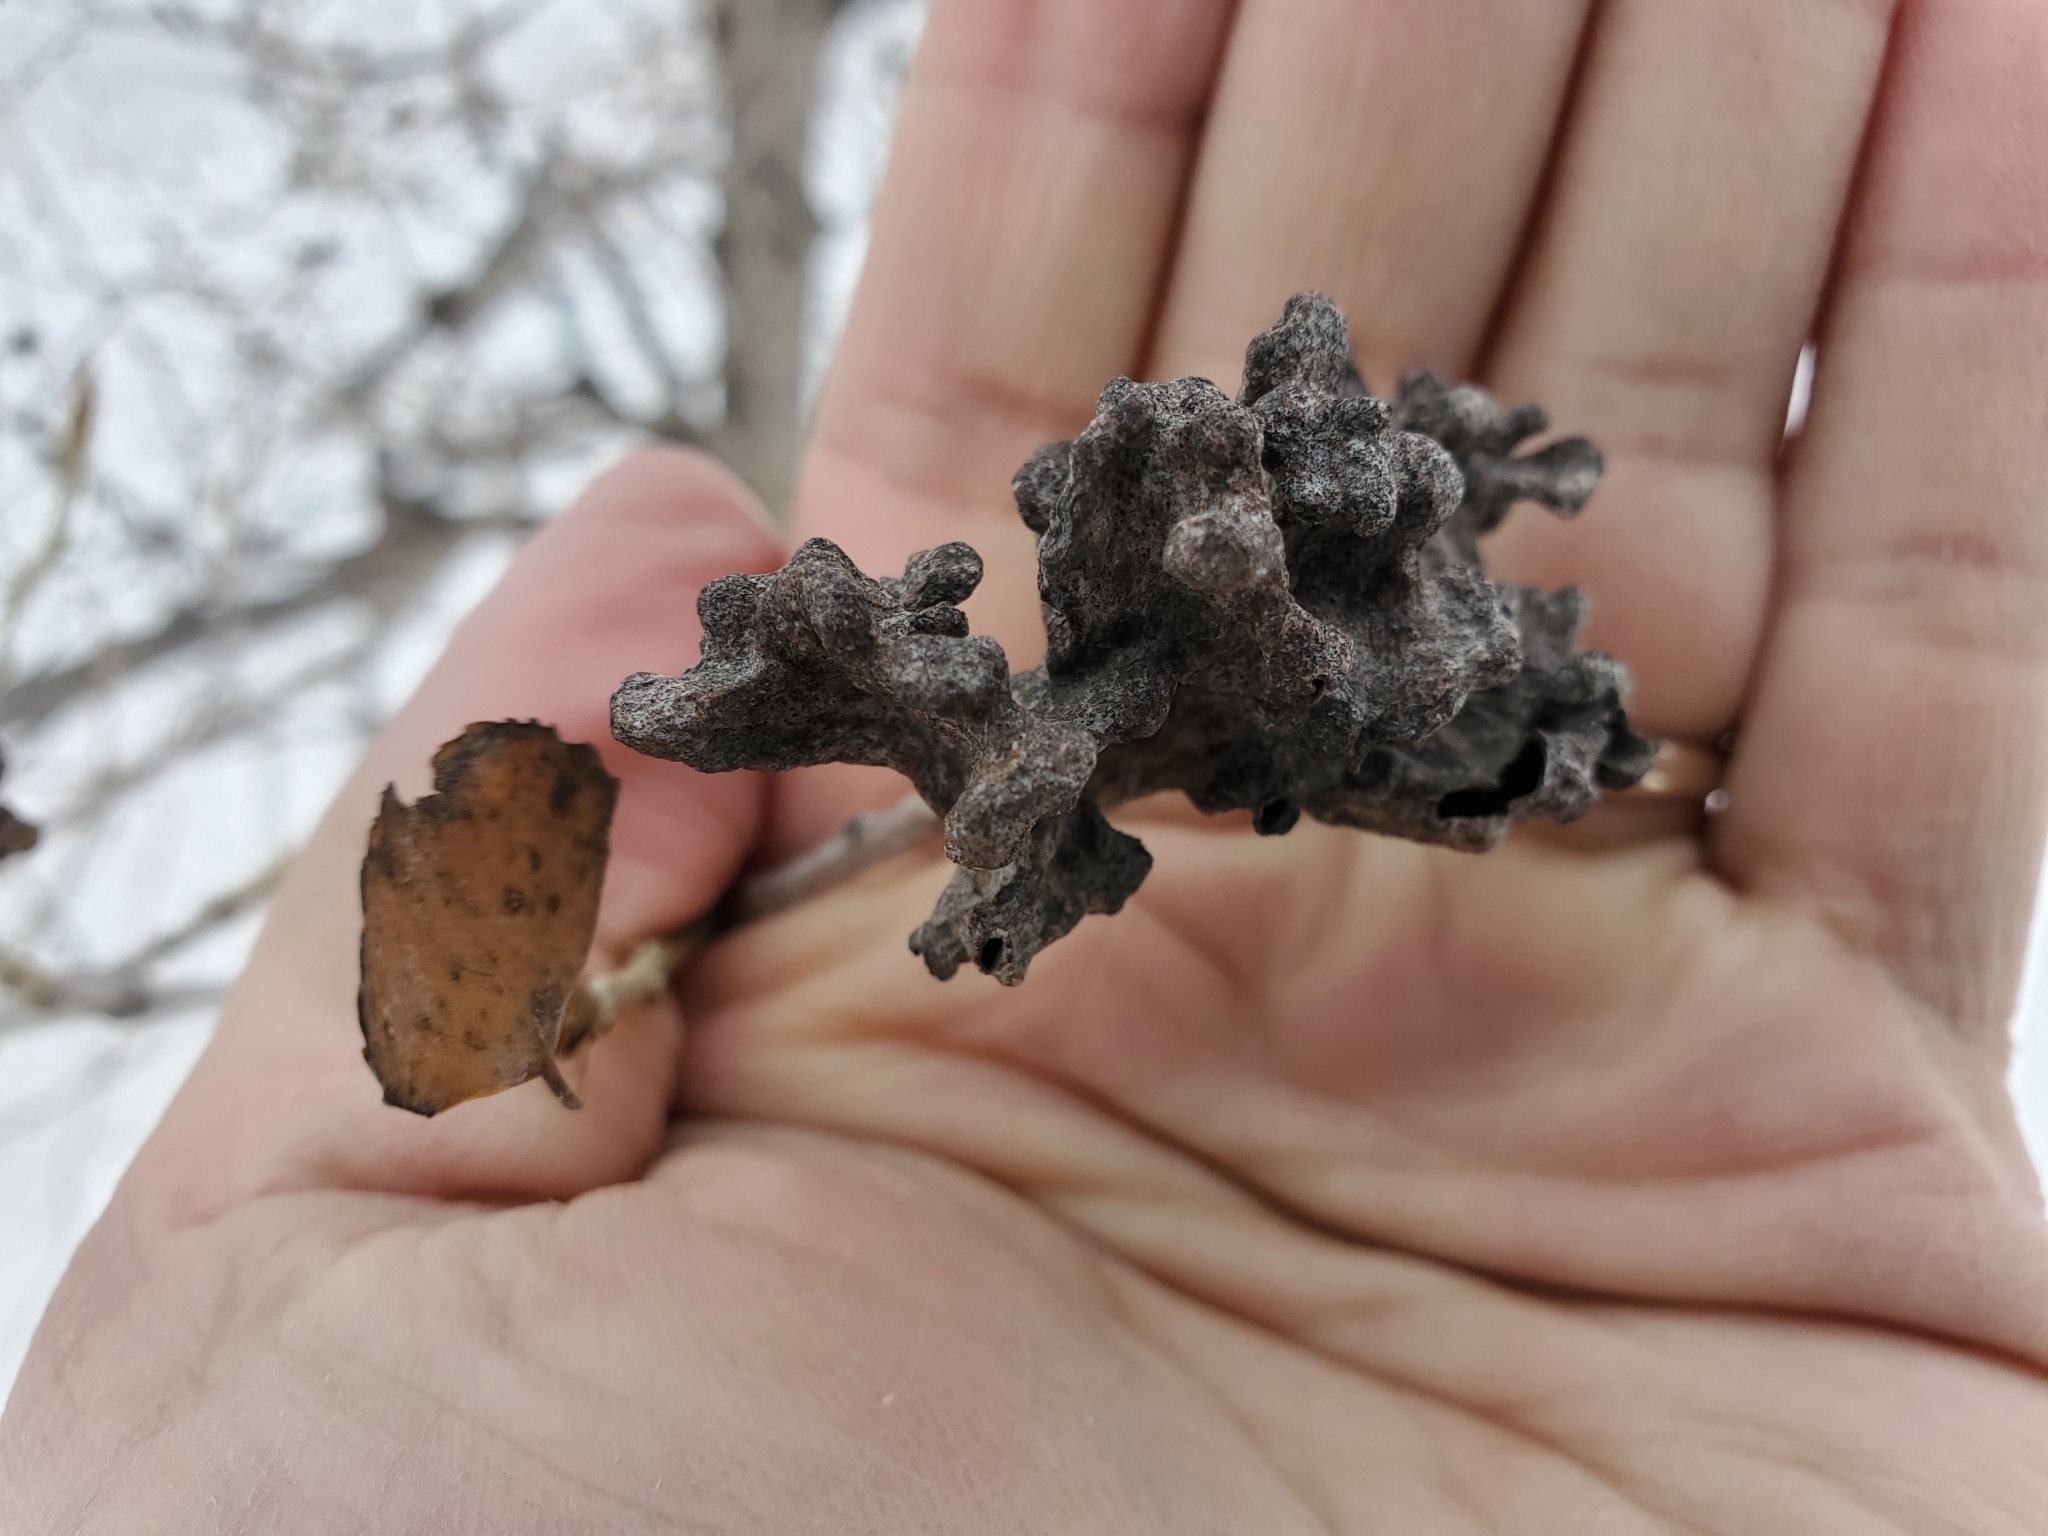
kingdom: Animalia
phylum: Arthropoda
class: Insecta
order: Hemiptera
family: Aphididae
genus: Mordwilkoja
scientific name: Mordwilkoja vagabunda
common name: Poplar vagabond aphid
